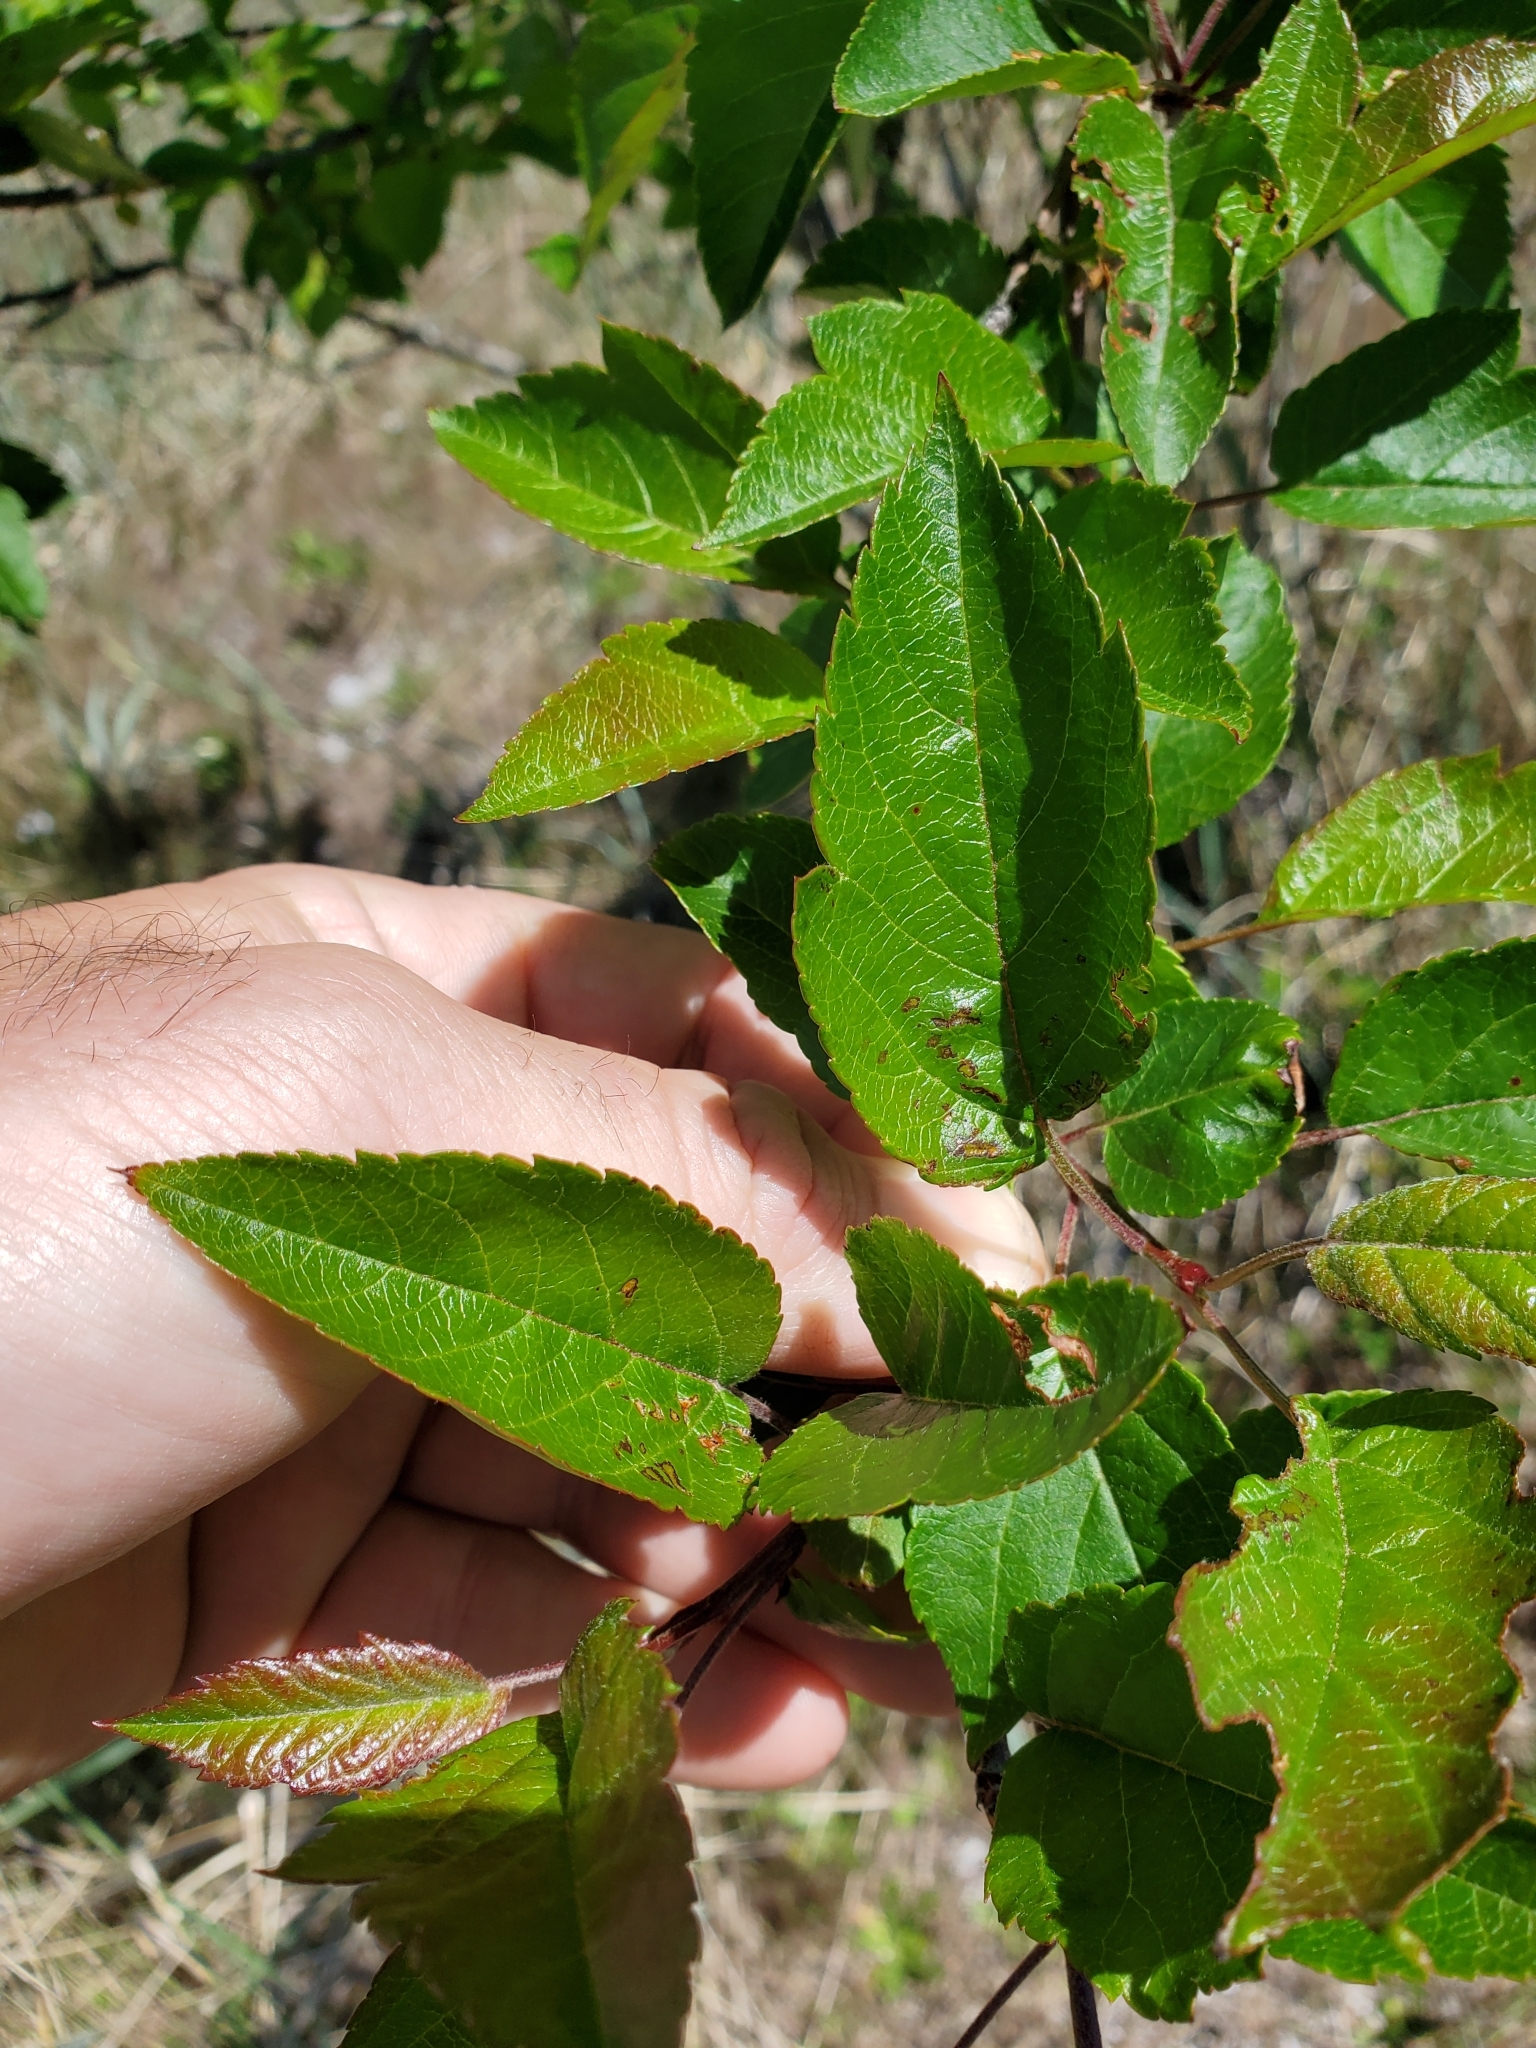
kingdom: Plantae
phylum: Tracheophyta
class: Magnoliopsida
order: Rosales
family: Rosaceae
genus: Malus
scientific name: Malus fusca
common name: Oregon crab apple
